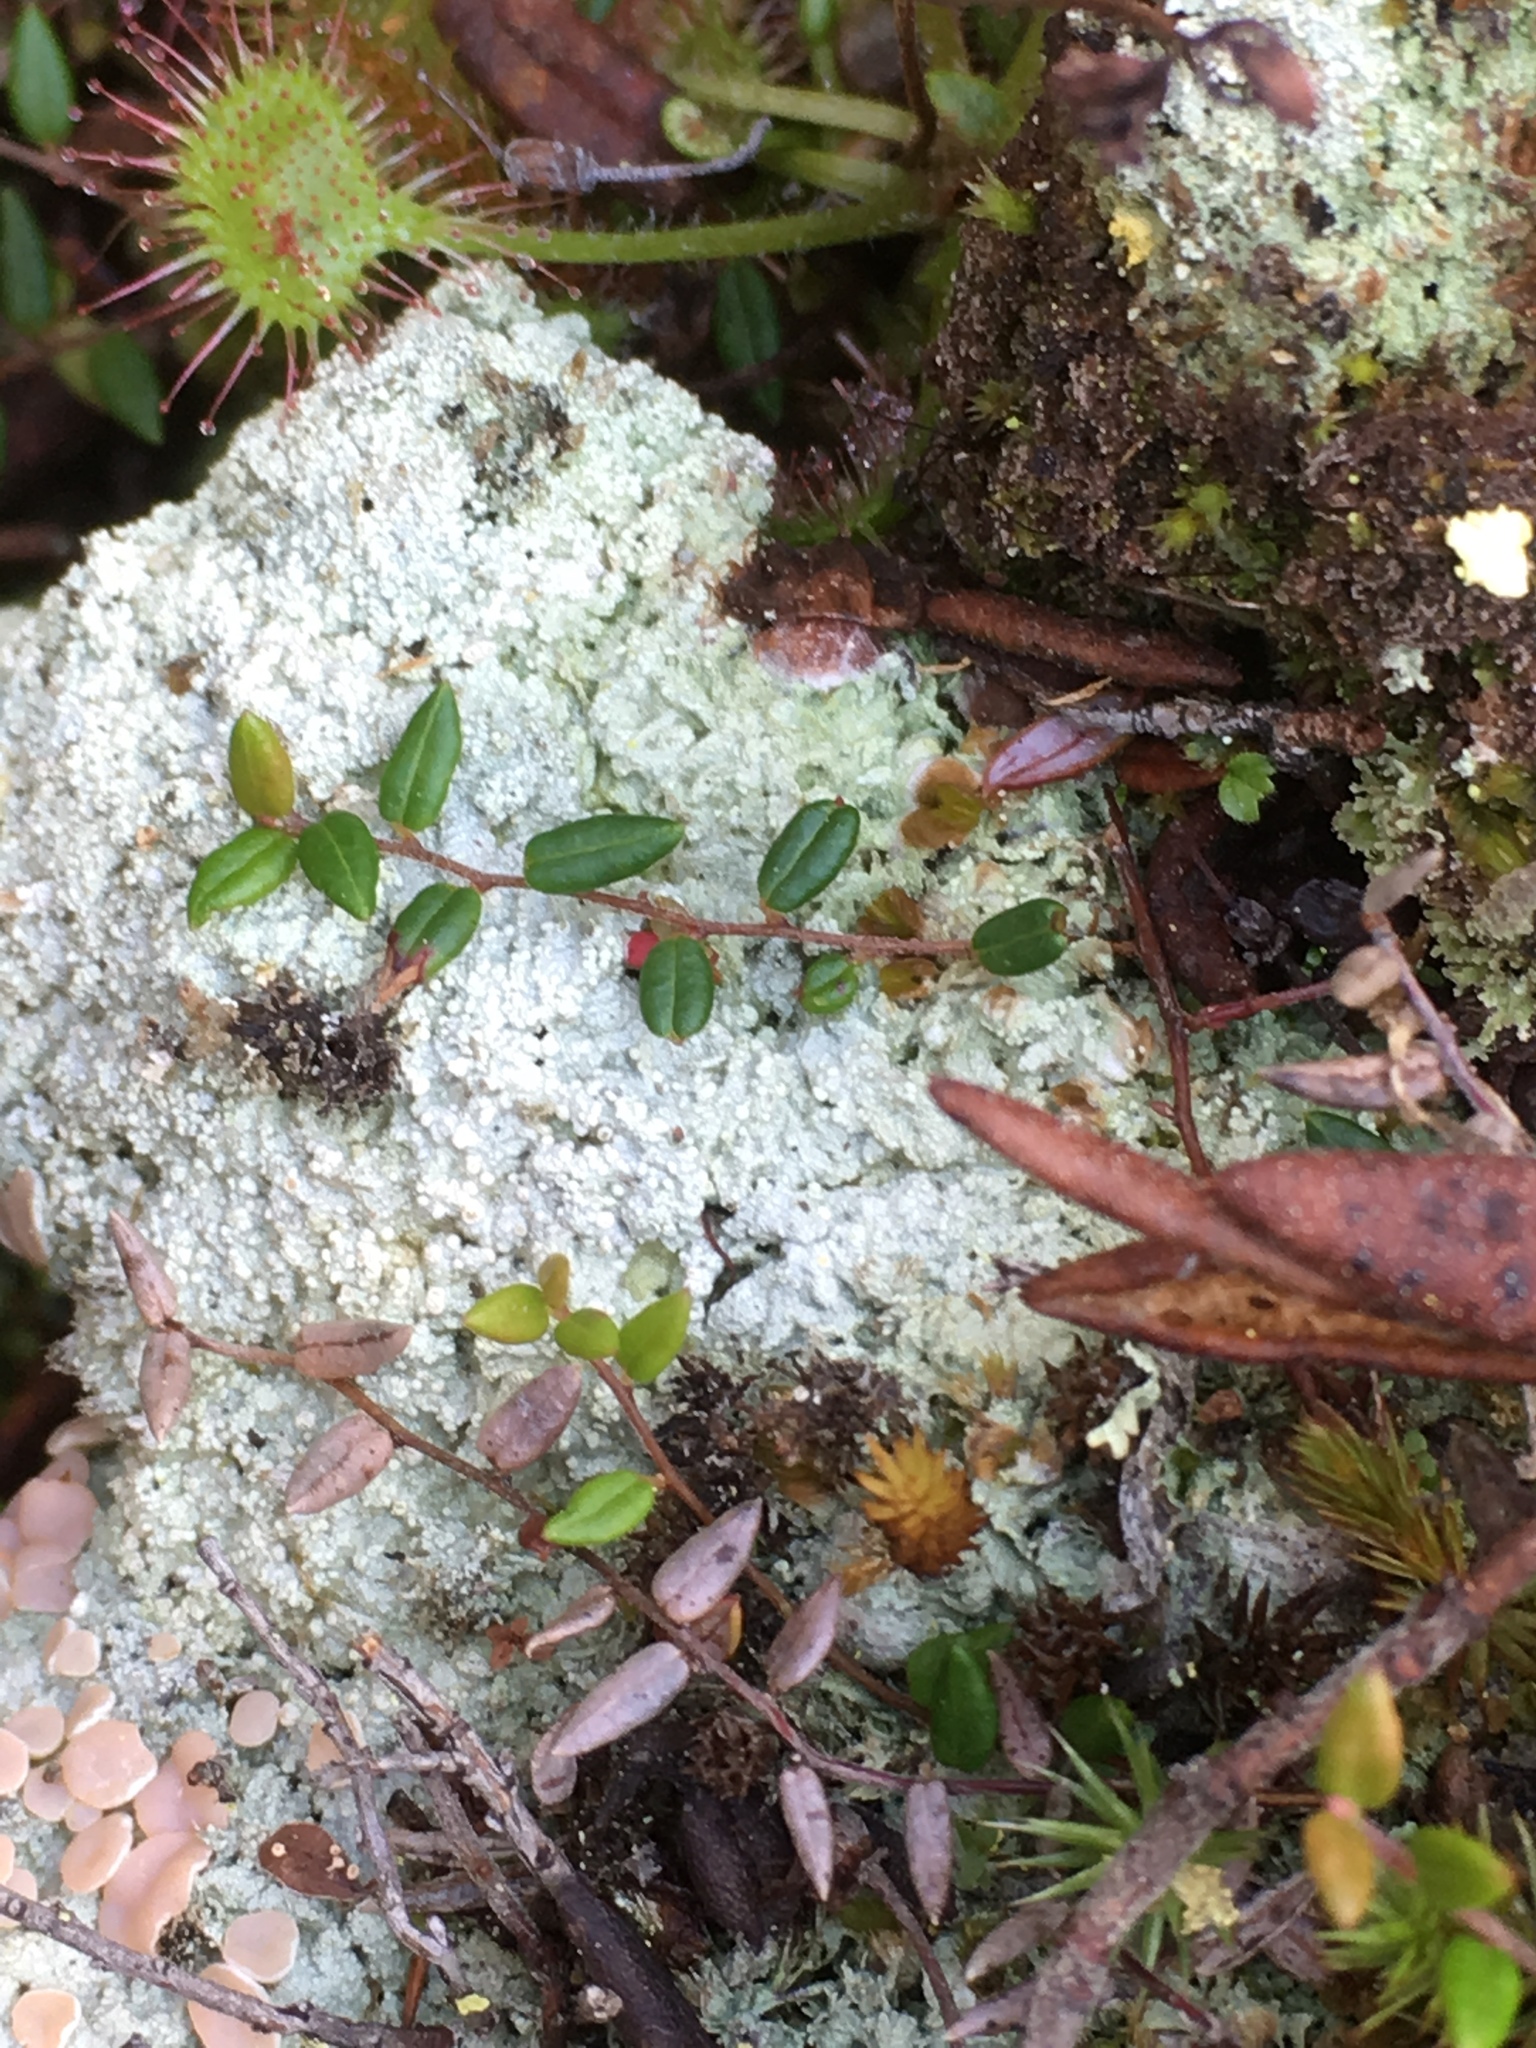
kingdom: Plantae
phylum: Tracheophyta
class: Magnoliopsida
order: Ericales
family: Ericaceae
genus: Vaccinium
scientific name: Vaccinium oxycoccos
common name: Cranberry
